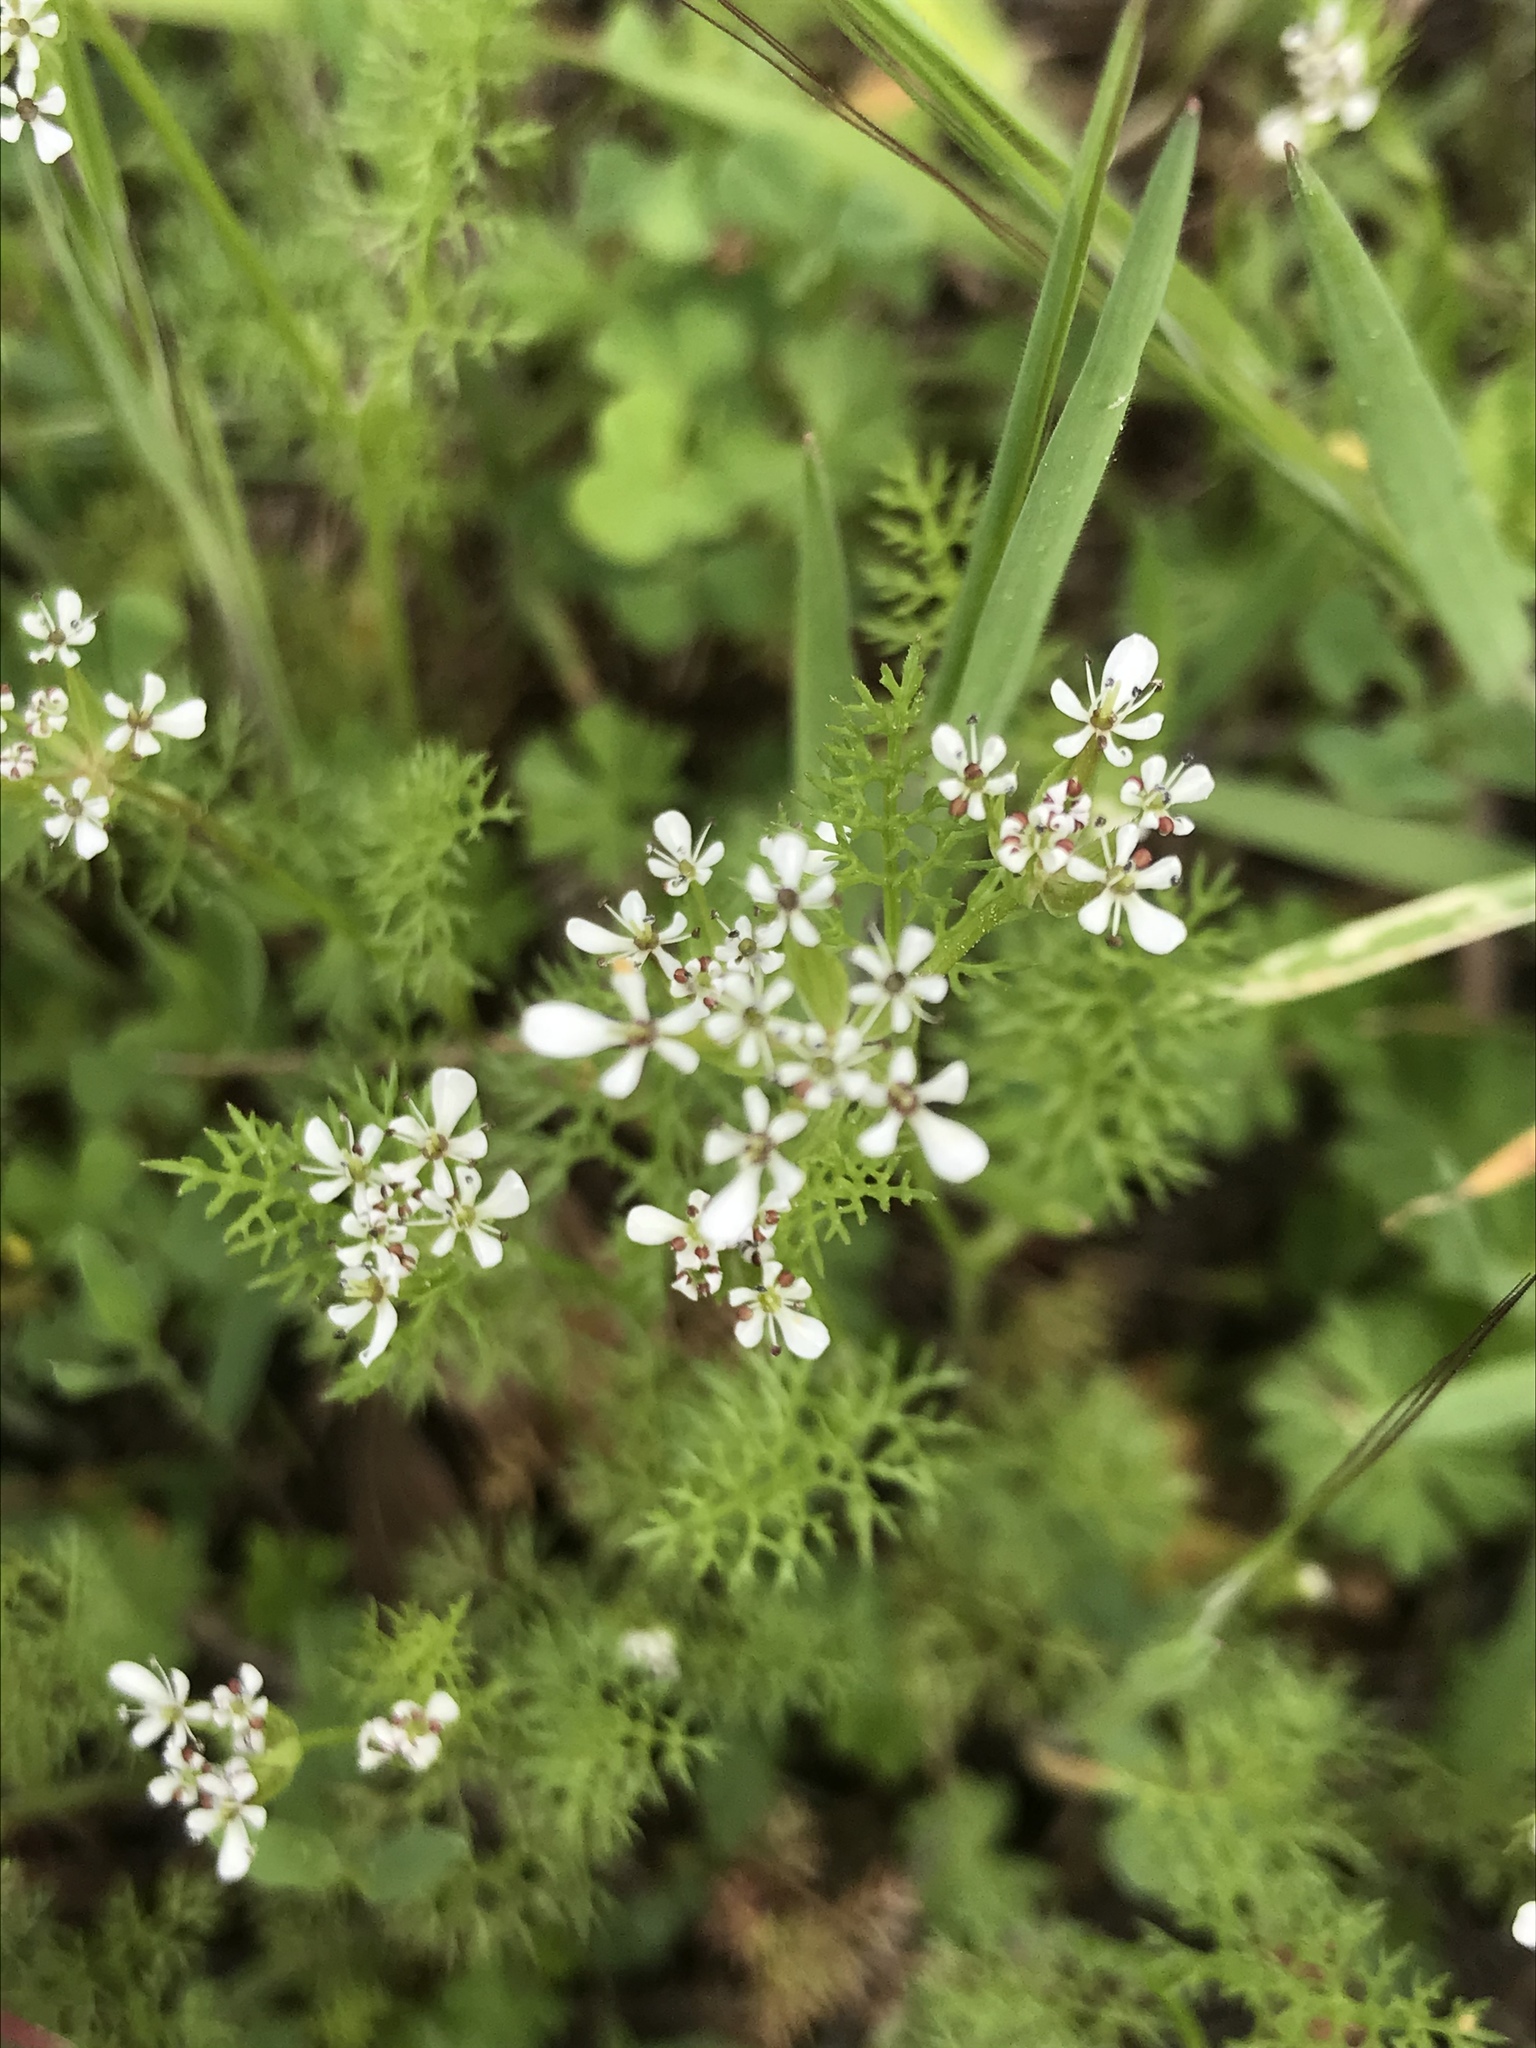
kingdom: Plantae
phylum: Tracheophyta
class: Magnoliopsida
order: Apiales
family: Apiaceae
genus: Scandix
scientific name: Scandix pecten-veneris
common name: Shepherd's-needle
